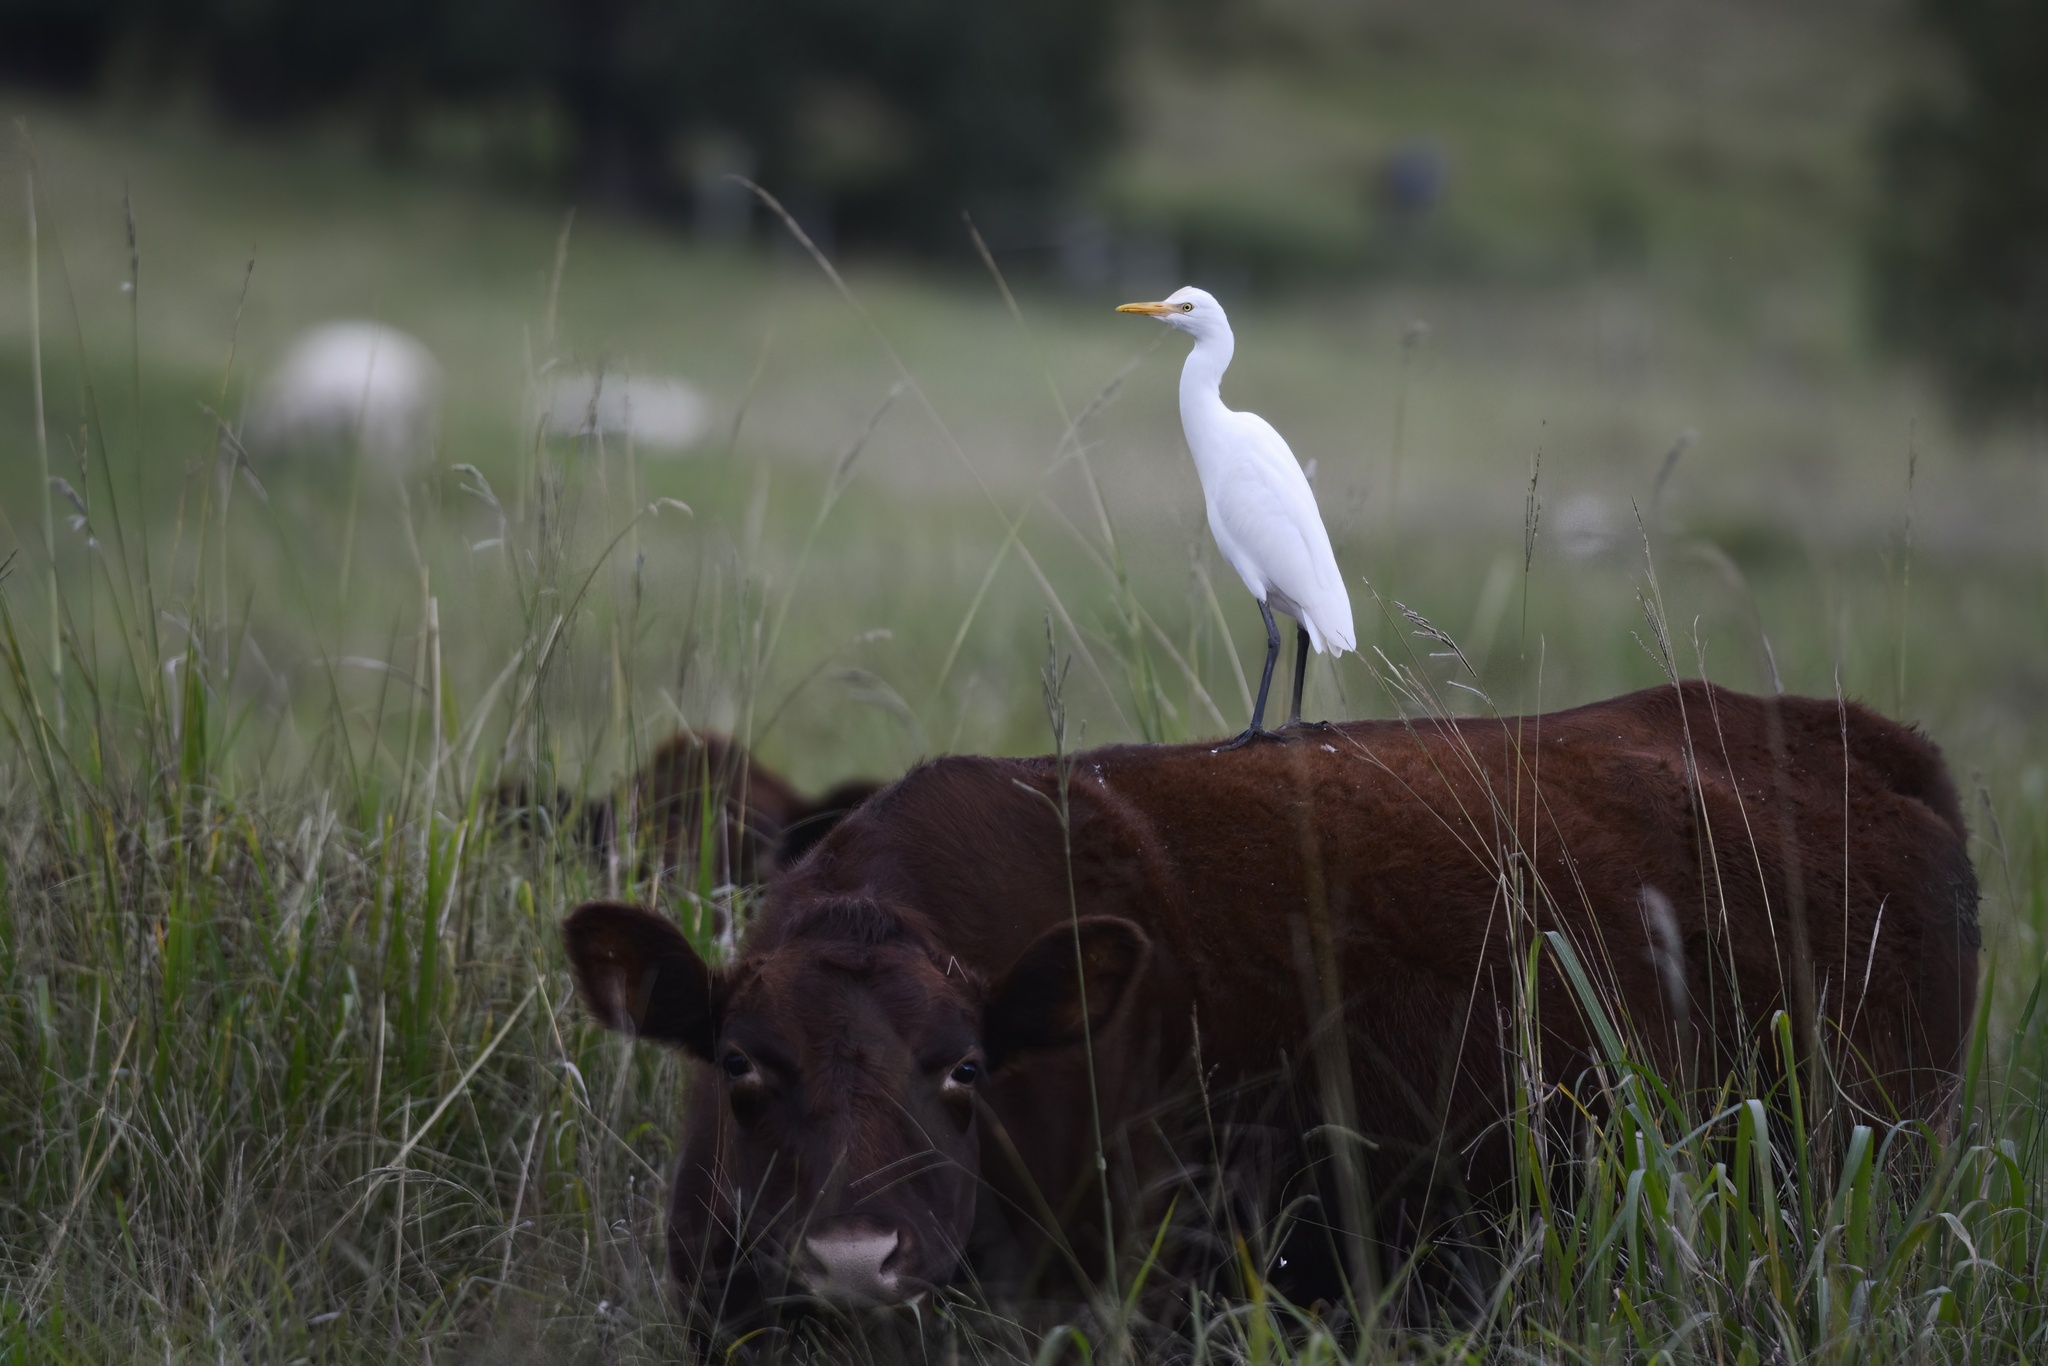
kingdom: Animalia
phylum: Chordata
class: Aves
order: Pelecaniformes
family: Ardeidae
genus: Bubulcus
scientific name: Bubulcus coromandus
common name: Eastern cattle egret
